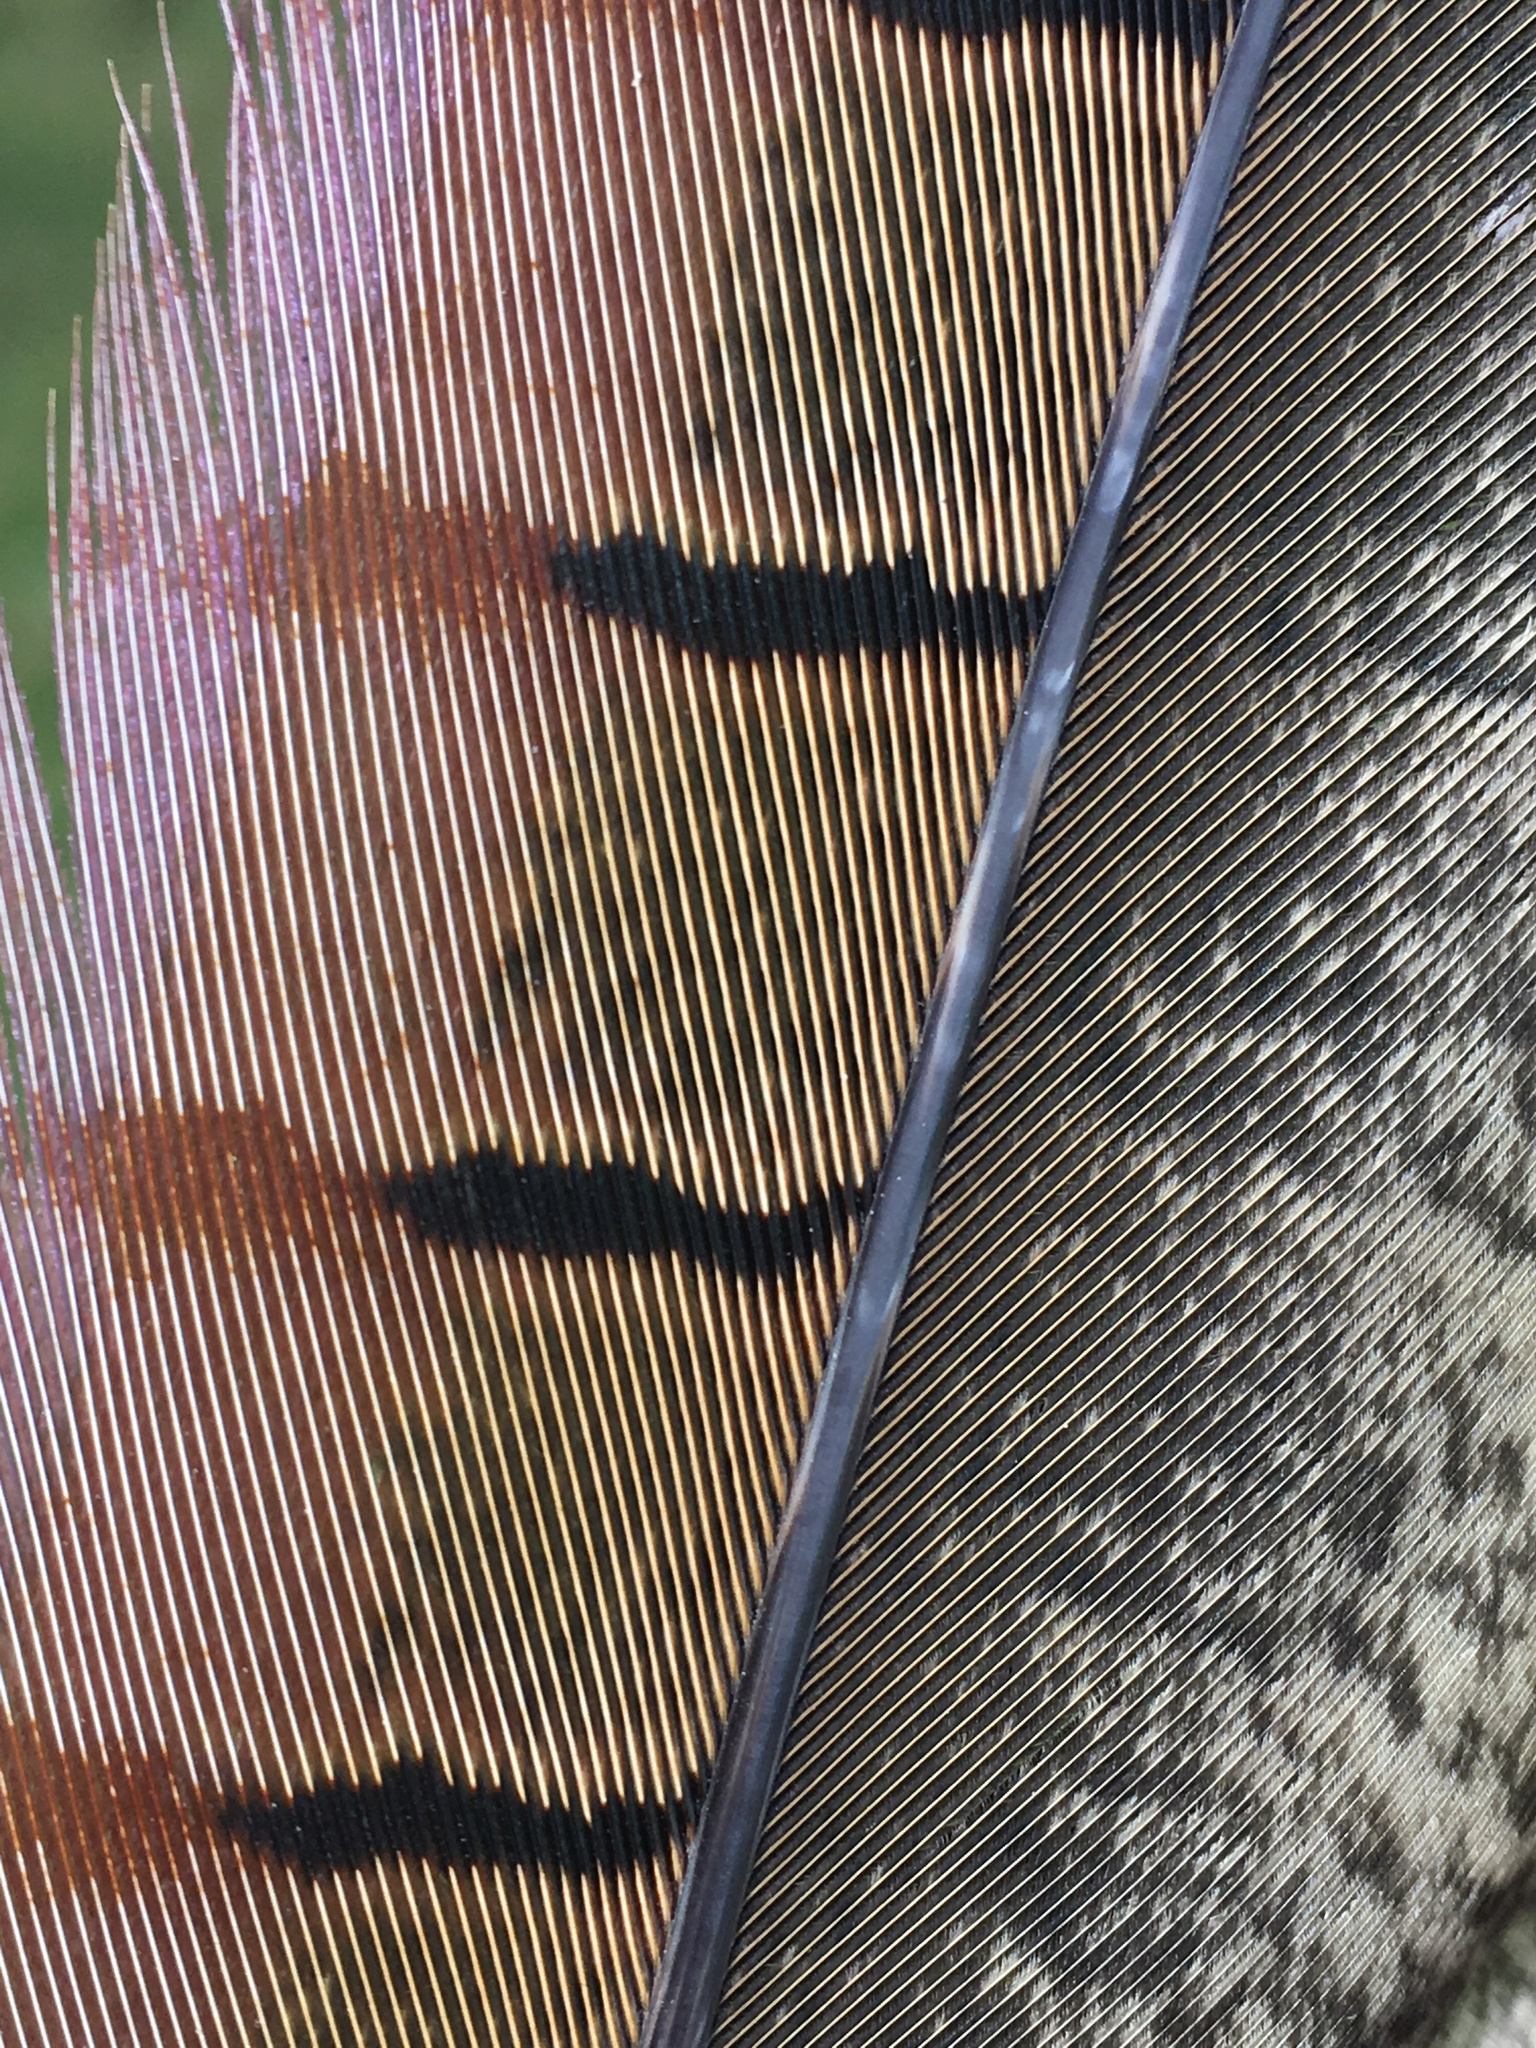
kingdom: Animalia
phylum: Chordata
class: Aves
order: Galliformes
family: Phasianidae
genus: Phasianus
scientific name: Phasianus colchicus
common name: Common pheasant
